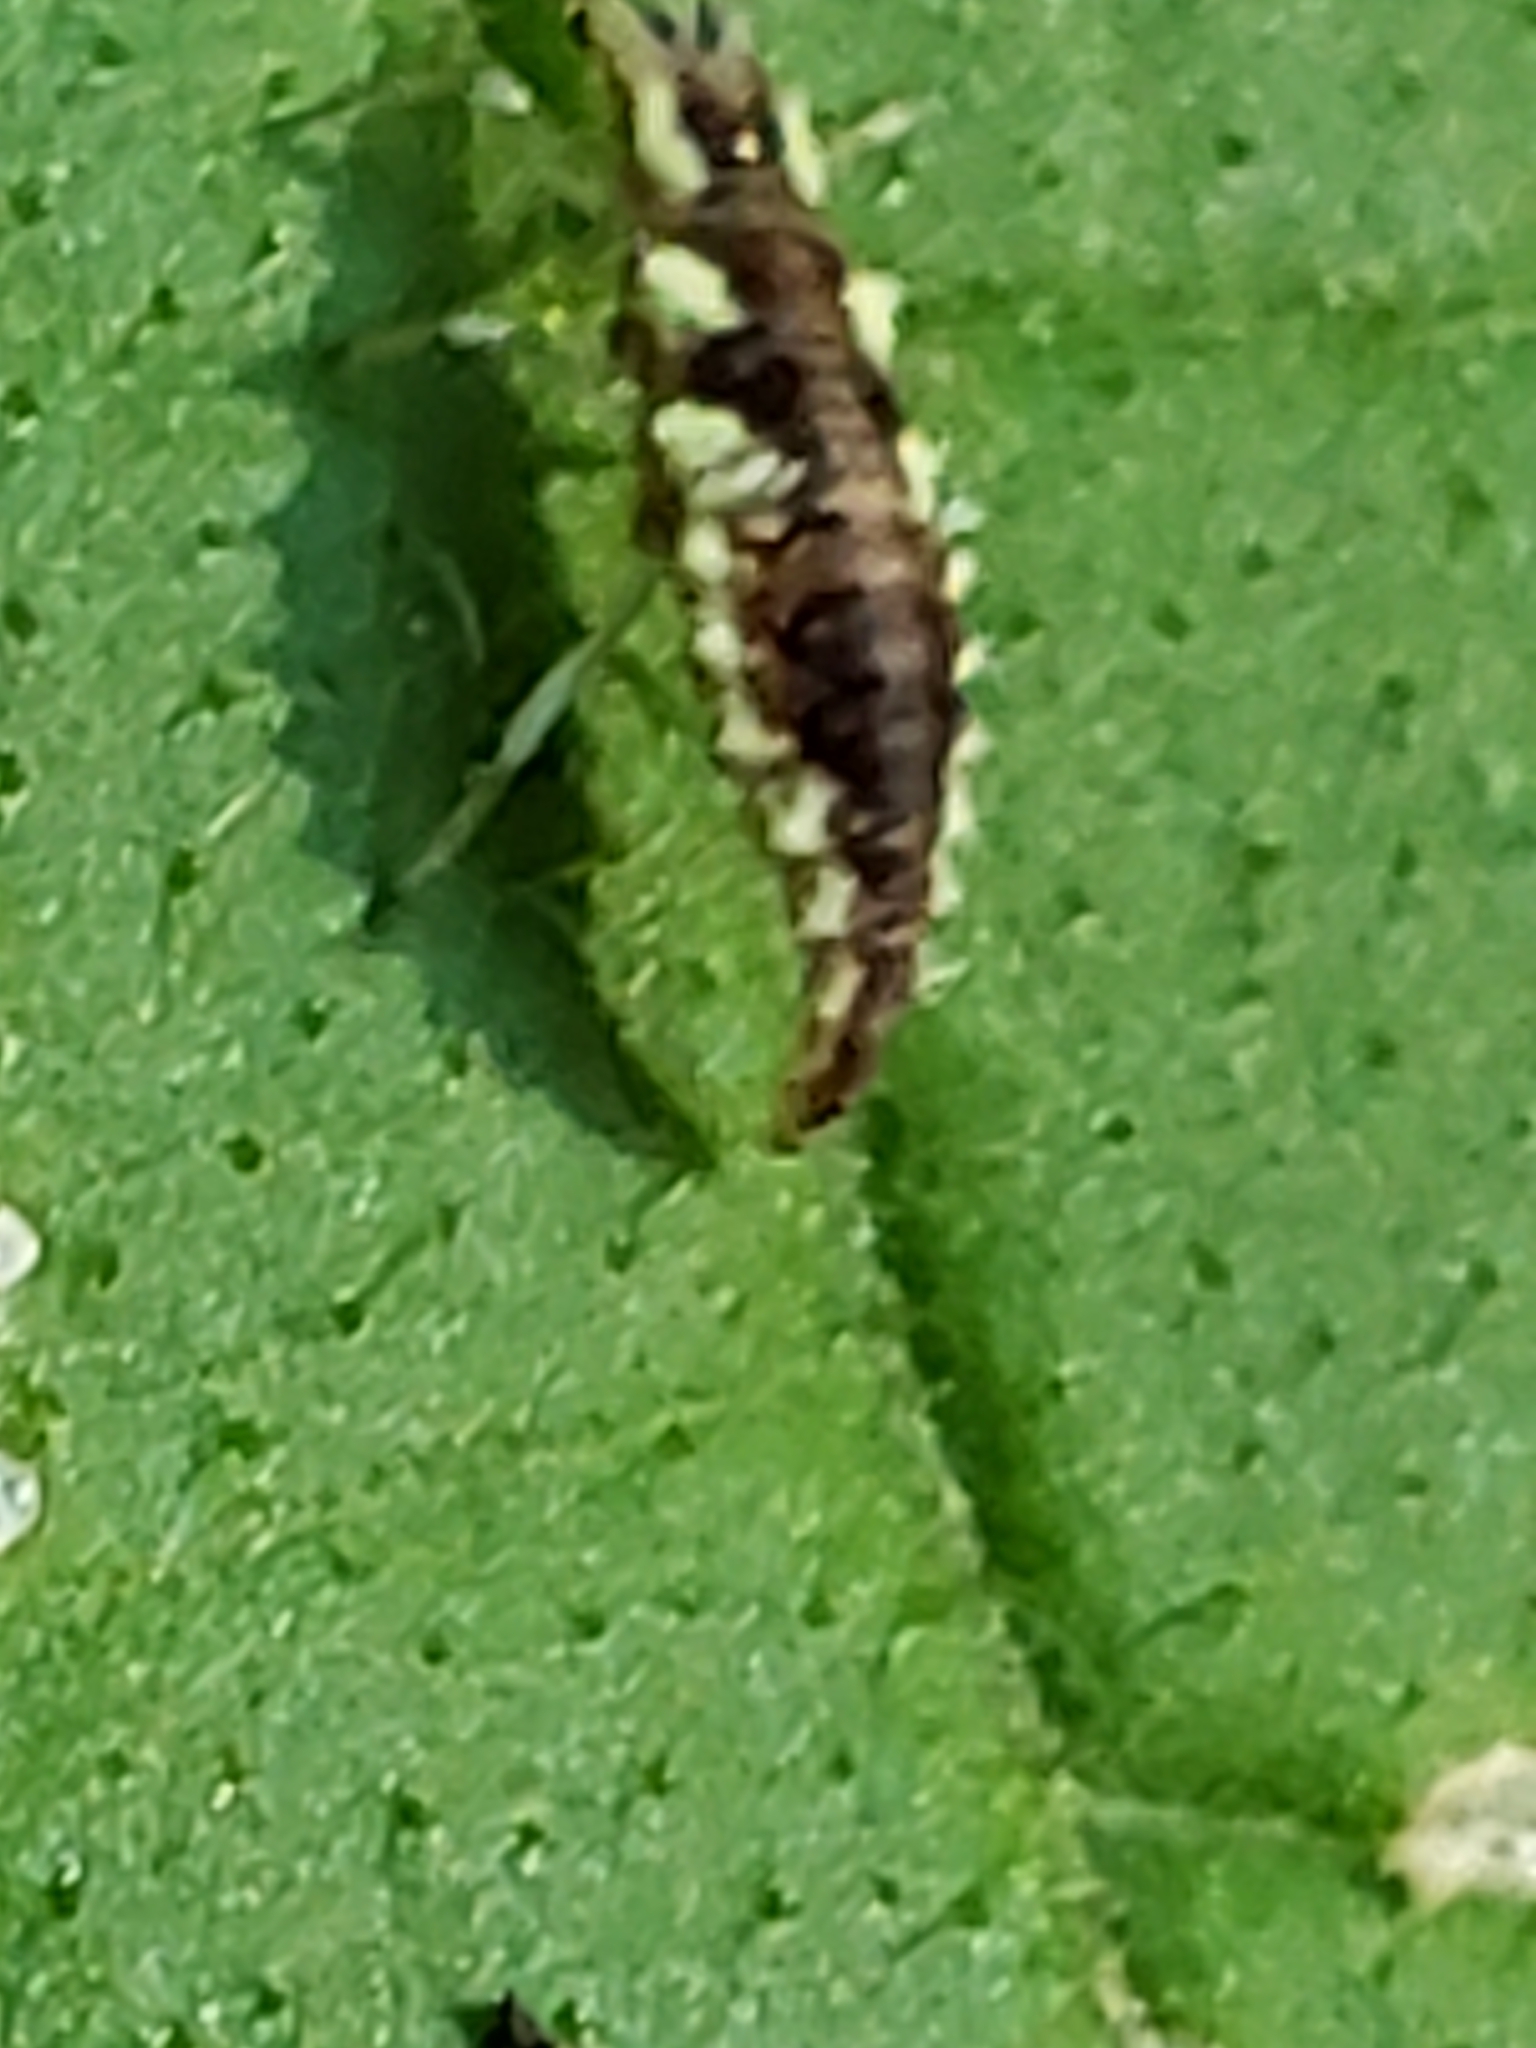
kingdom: Animalia
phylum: Arthropoda
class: Insecta
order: Neuroptera
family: Chrysopidae
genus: Chrysoperla
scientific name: Chrysoperla rufilabris
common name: Red-lipped green lacewing
